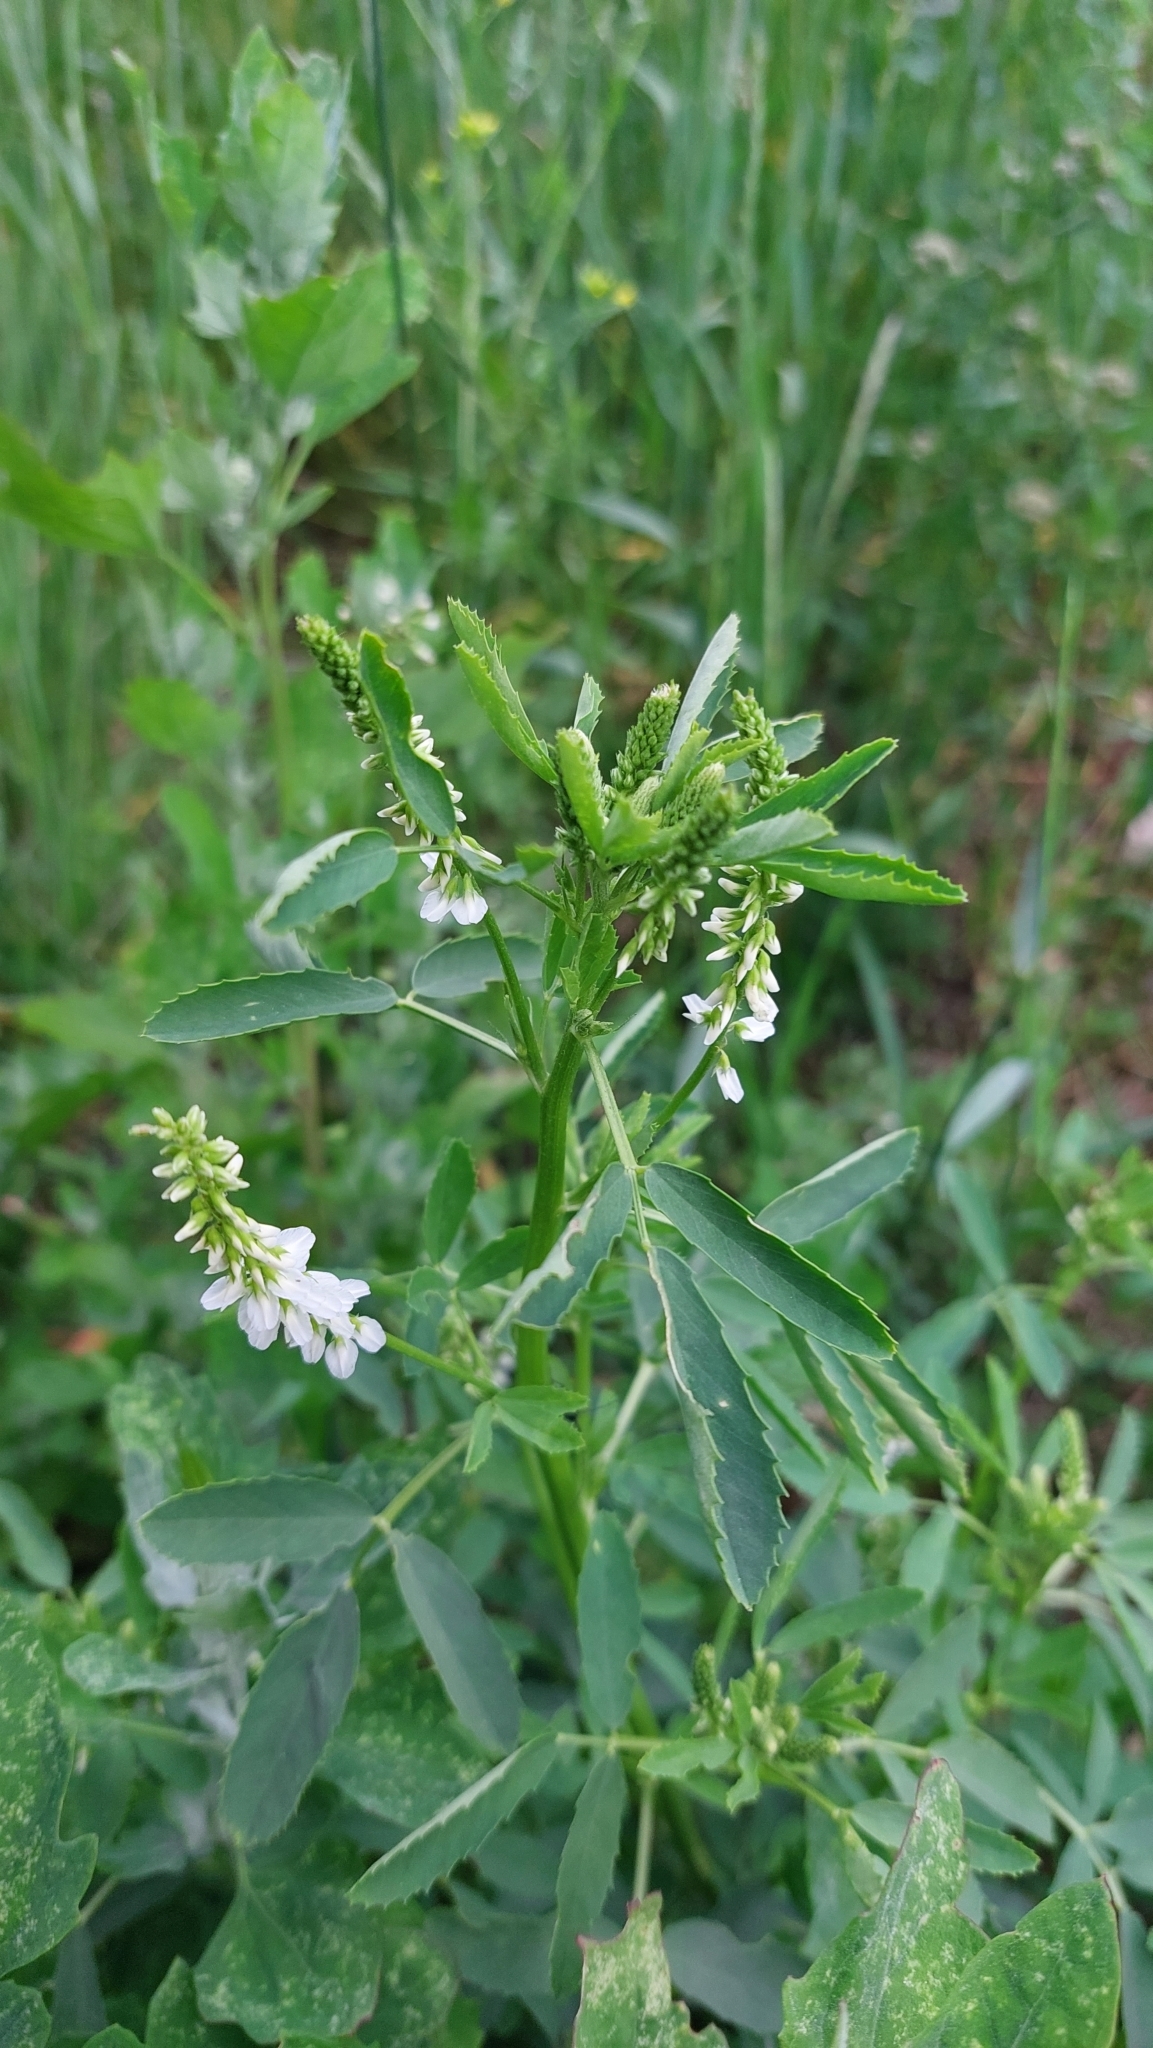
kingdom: Plantae
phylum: Tracheophyta
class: Magnoliopsida
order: Fabales
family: Fabaceae
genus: Melilotus
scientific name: Melilotus albus
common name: White melilot
